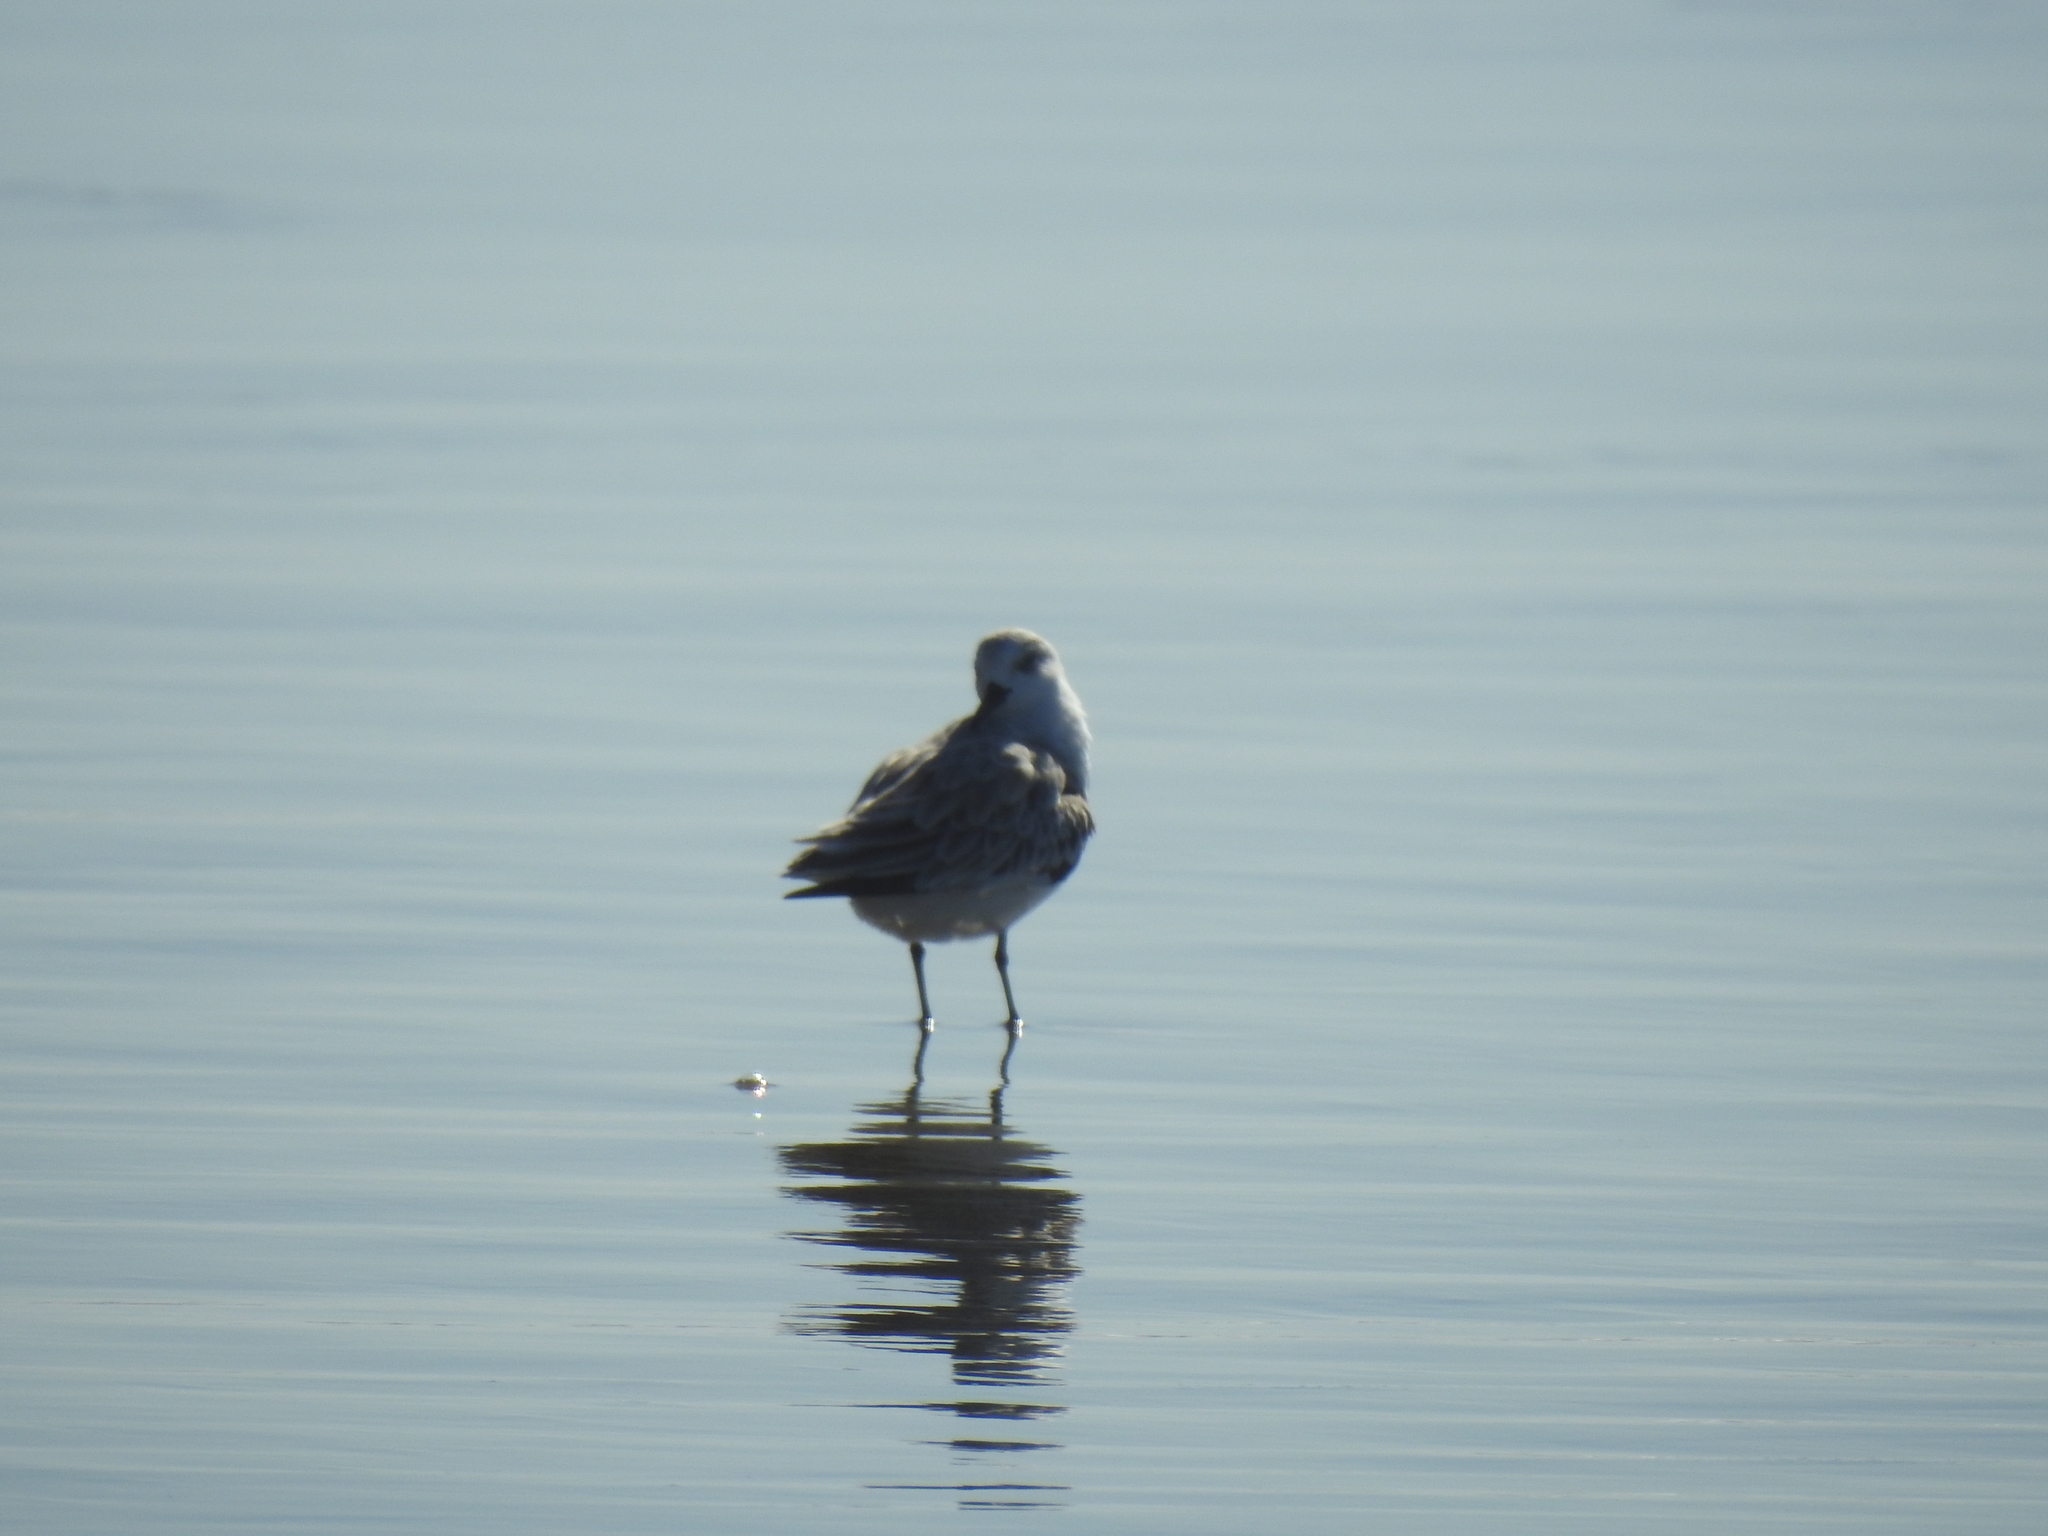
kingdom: Animalia
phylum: Chordata
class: Aves
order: Charadriiformes
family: Scolopacidae
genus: Calidris
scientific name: Calidris alba
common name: Sanderling
